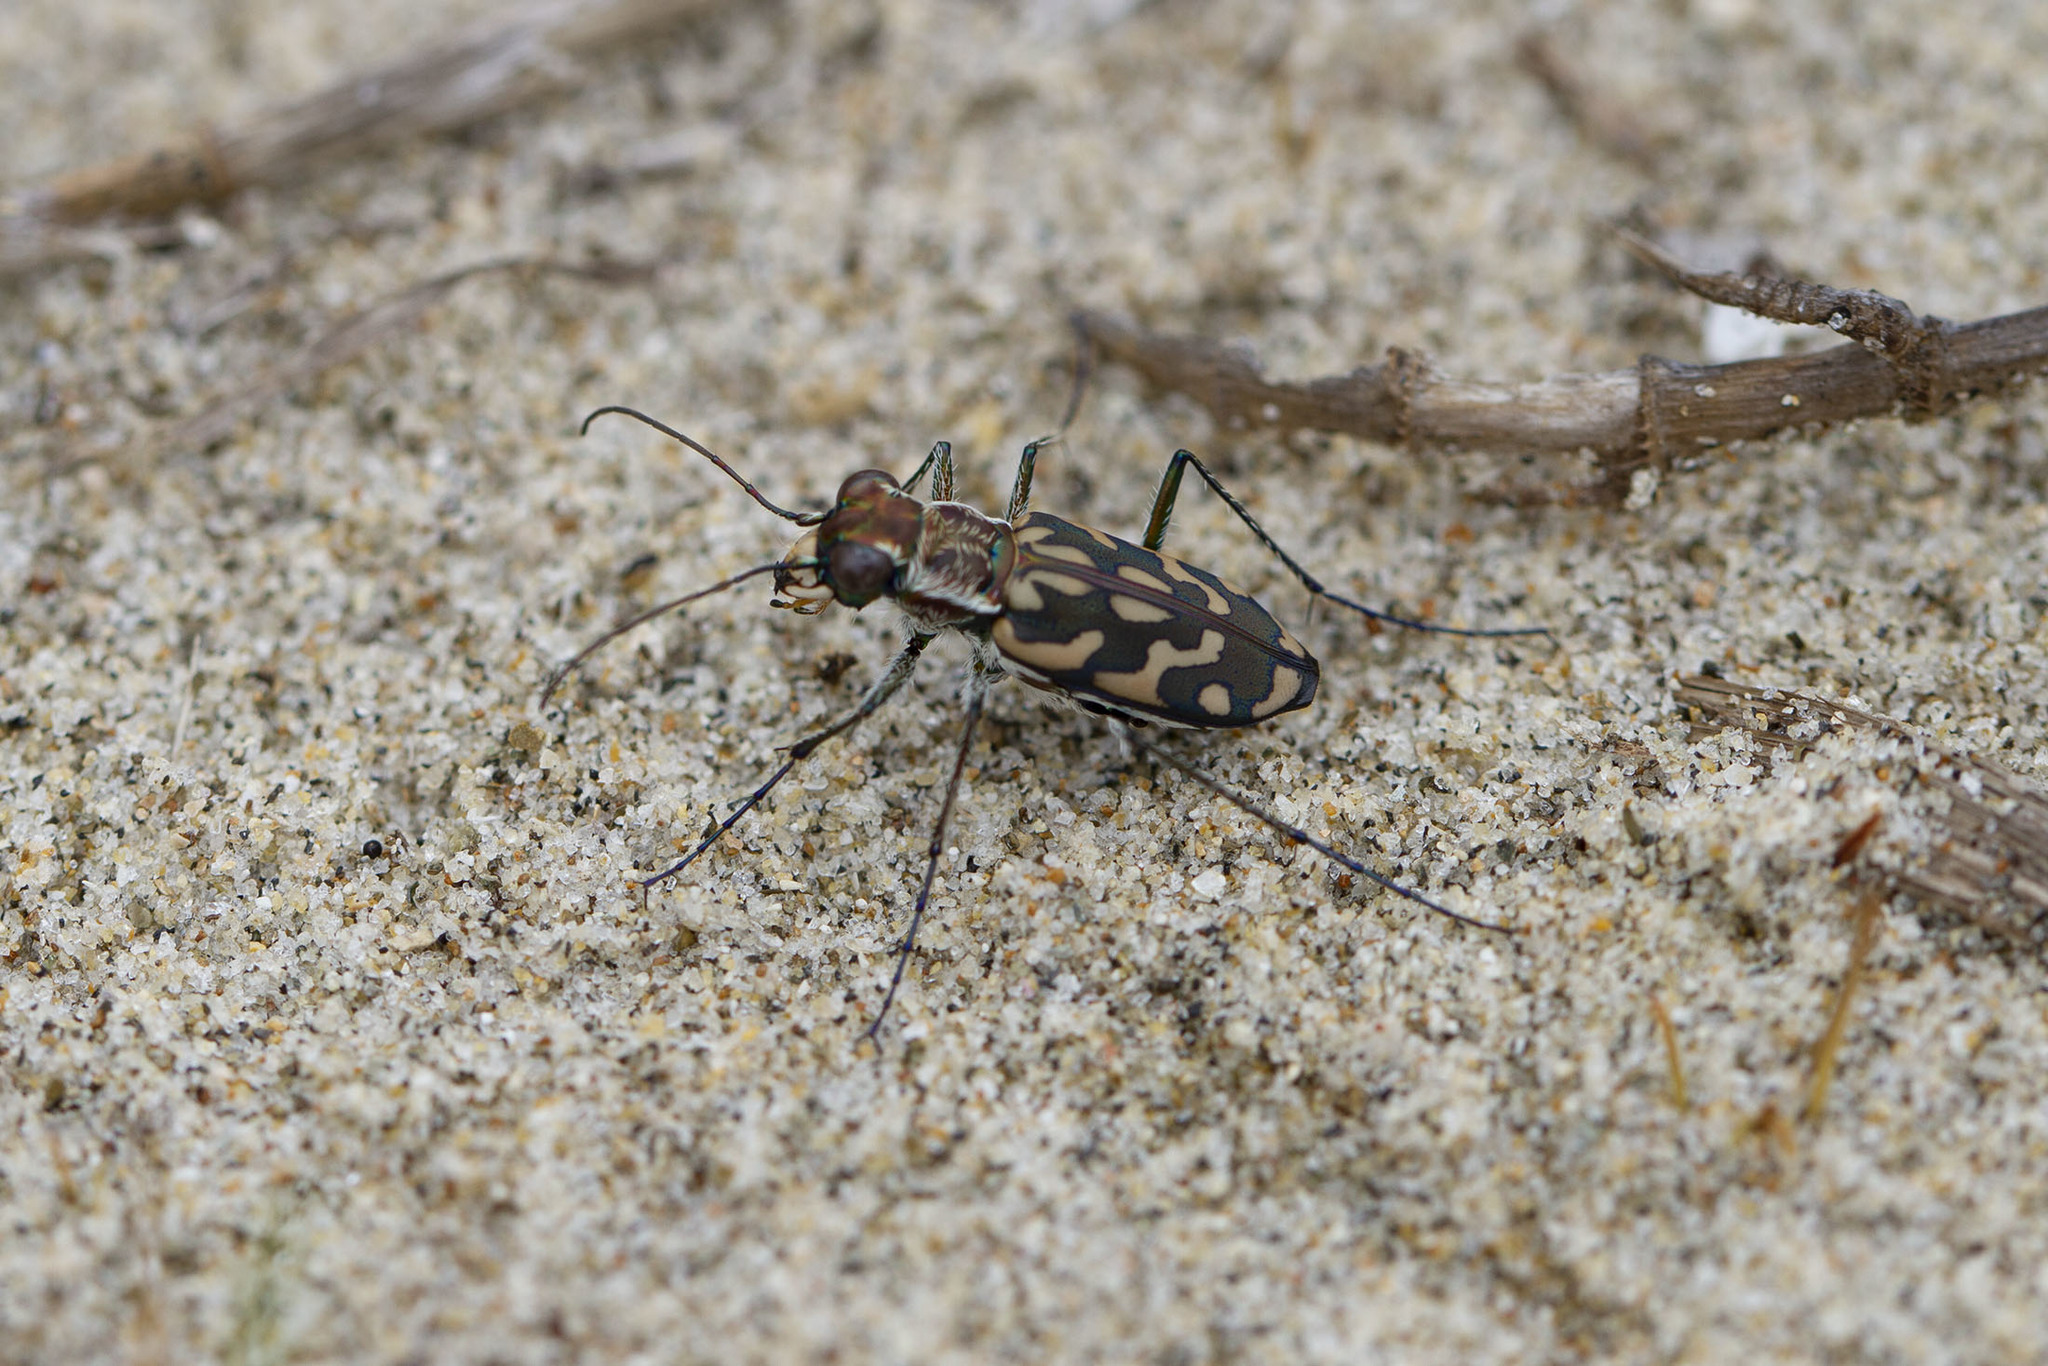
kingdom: Animalia
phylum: Arthropoda
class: Insecta
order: Coleoptera
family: Carabidae
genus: Lophyra
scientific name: Lophyra abbreviata
